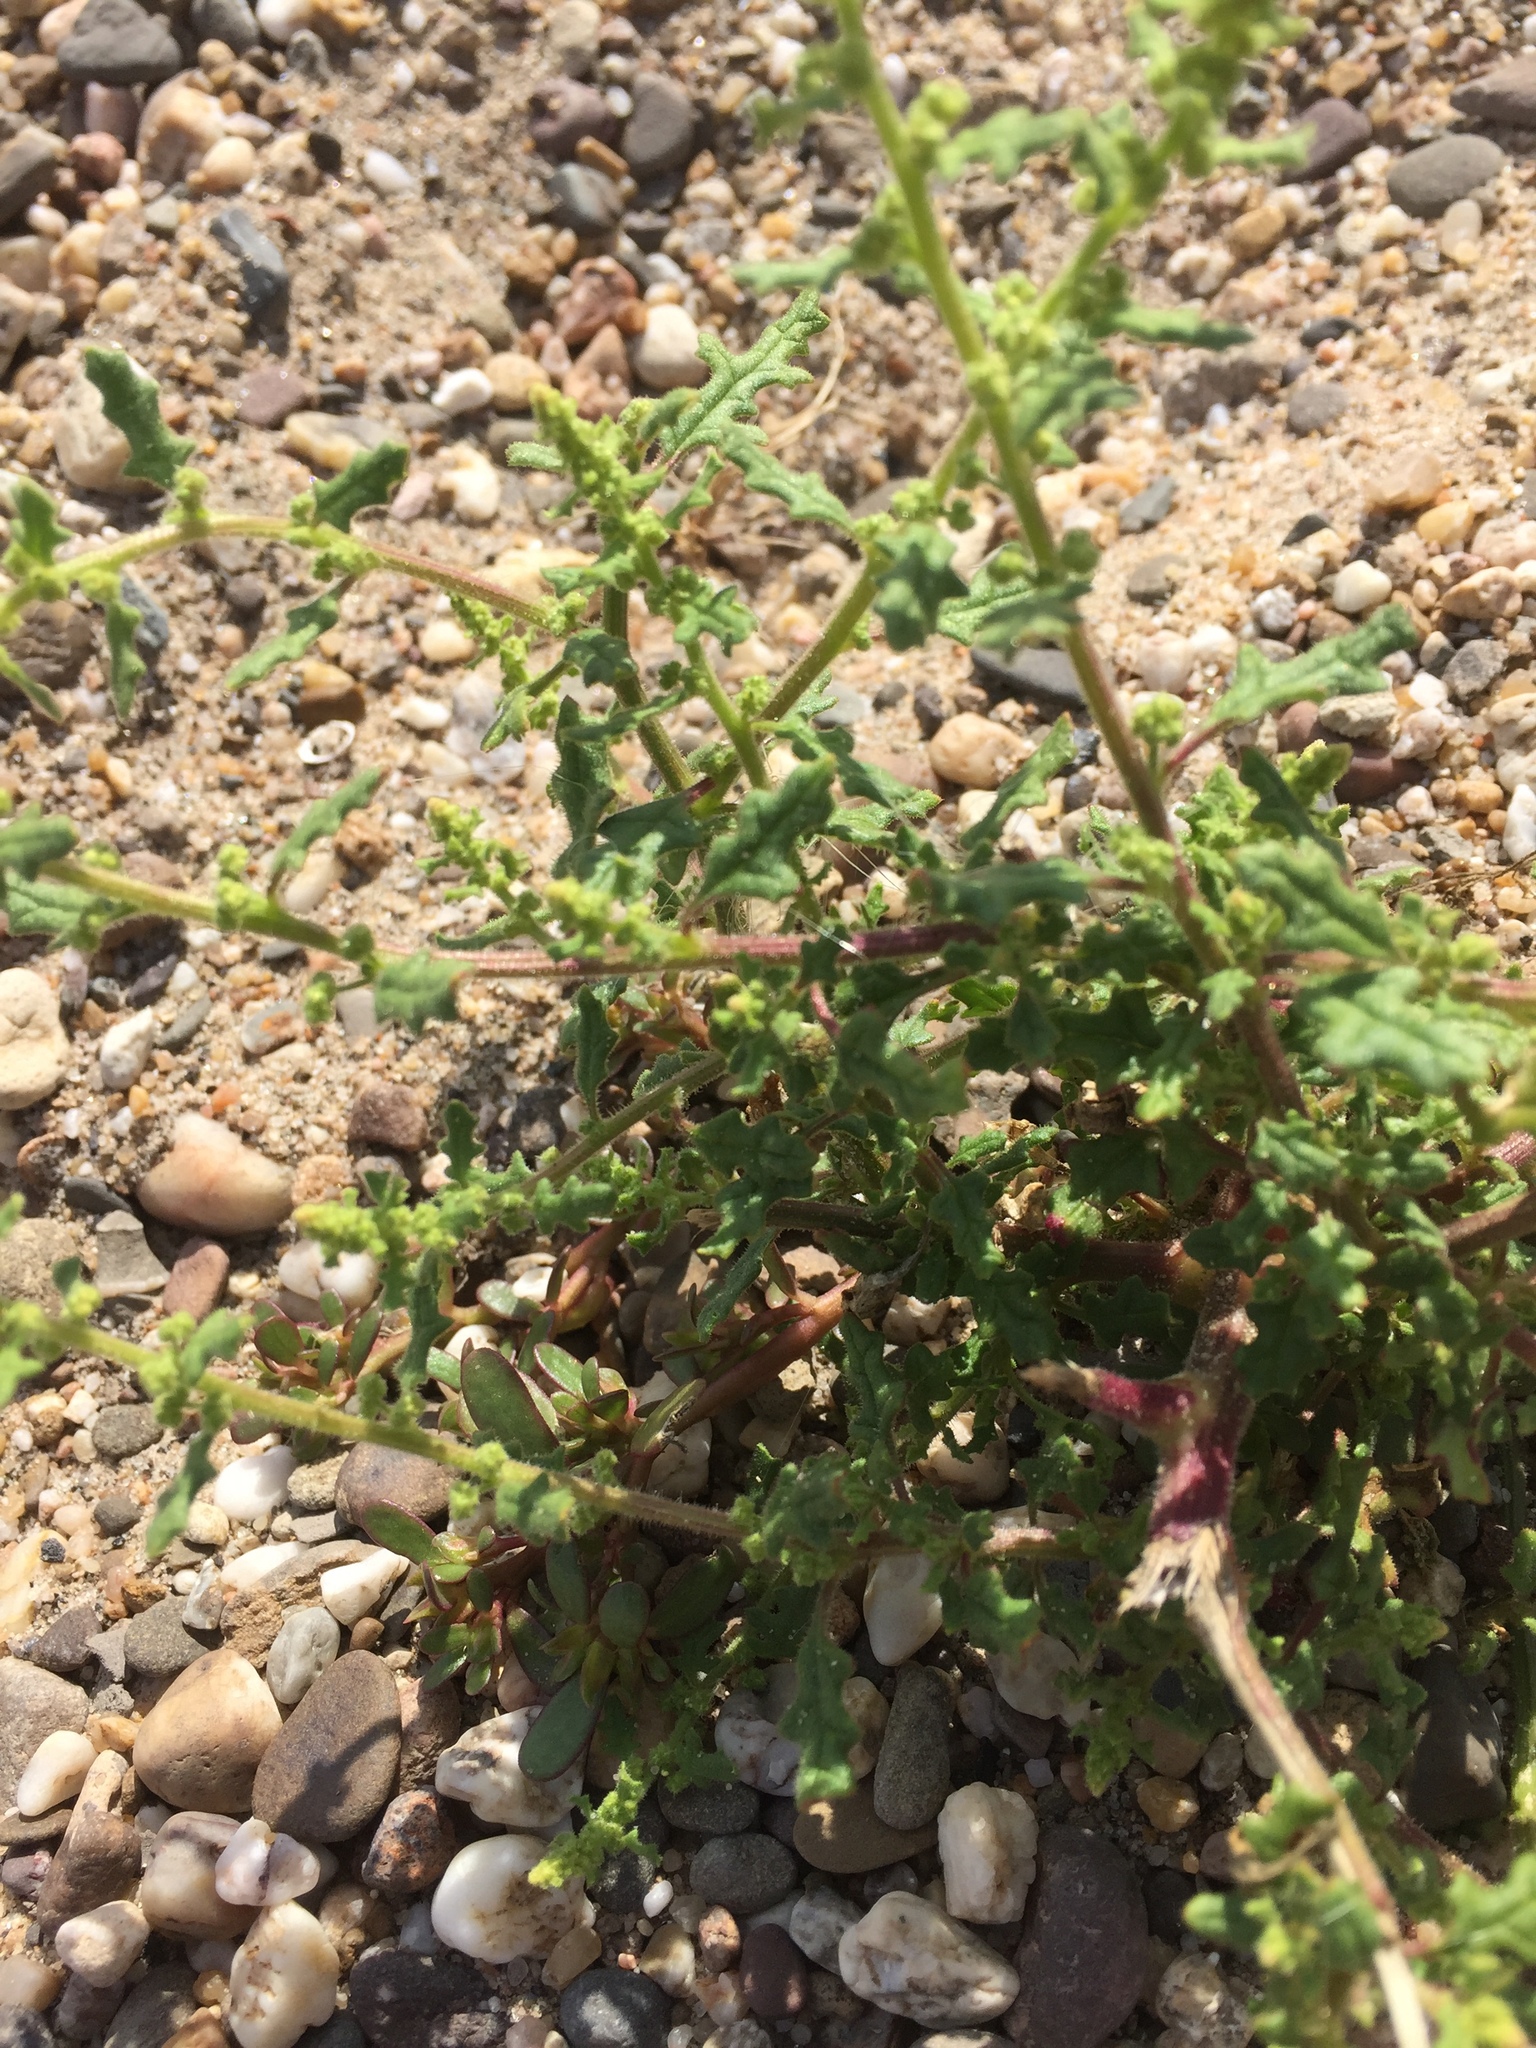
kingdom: Plantae
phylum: Tracheophyta
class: Magnoliopsida
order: Caryophyllales
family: Amaranthaceae
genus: Dysphania
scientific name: Dysphania pumilio
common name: Clammy goosefoot
